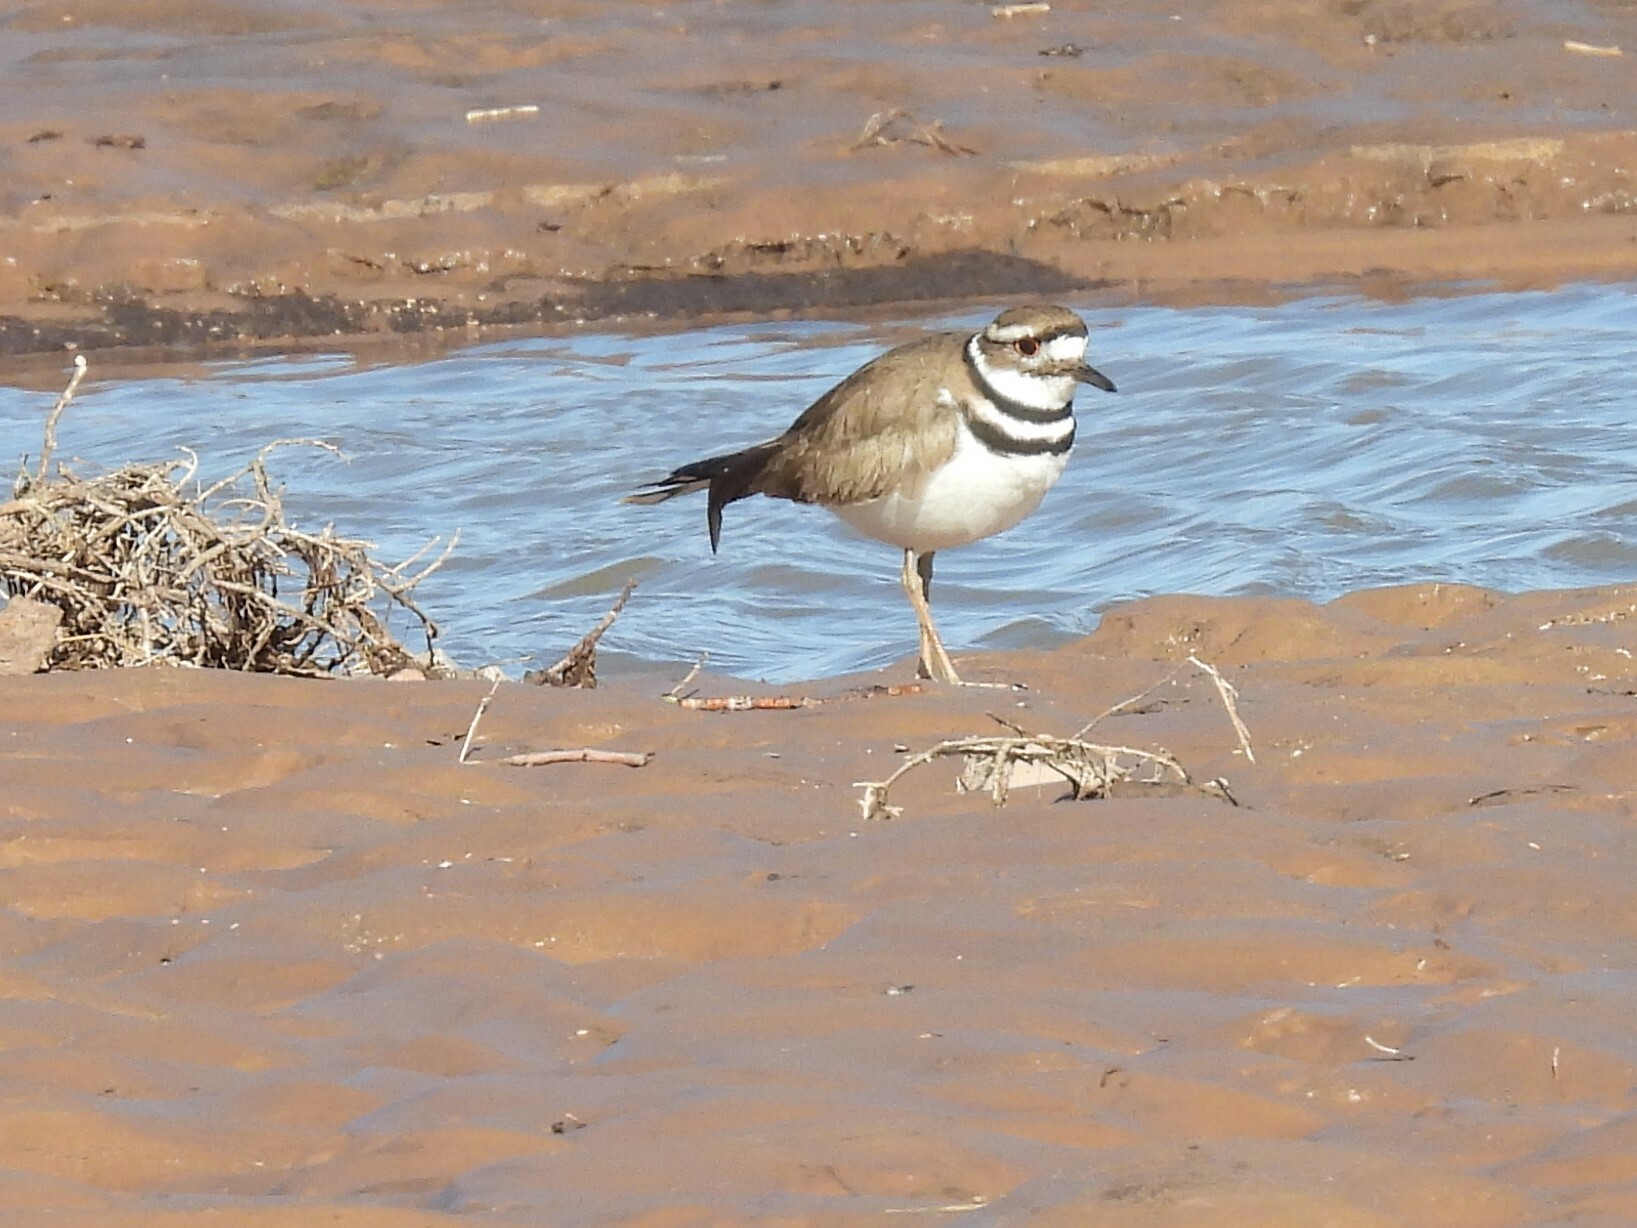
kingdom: Animalia
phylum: Chordata
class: Aves
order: Charadriiformes
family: Charadriidae
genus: Charadrius
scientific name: Charadrius vociferus
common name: Killdeer
